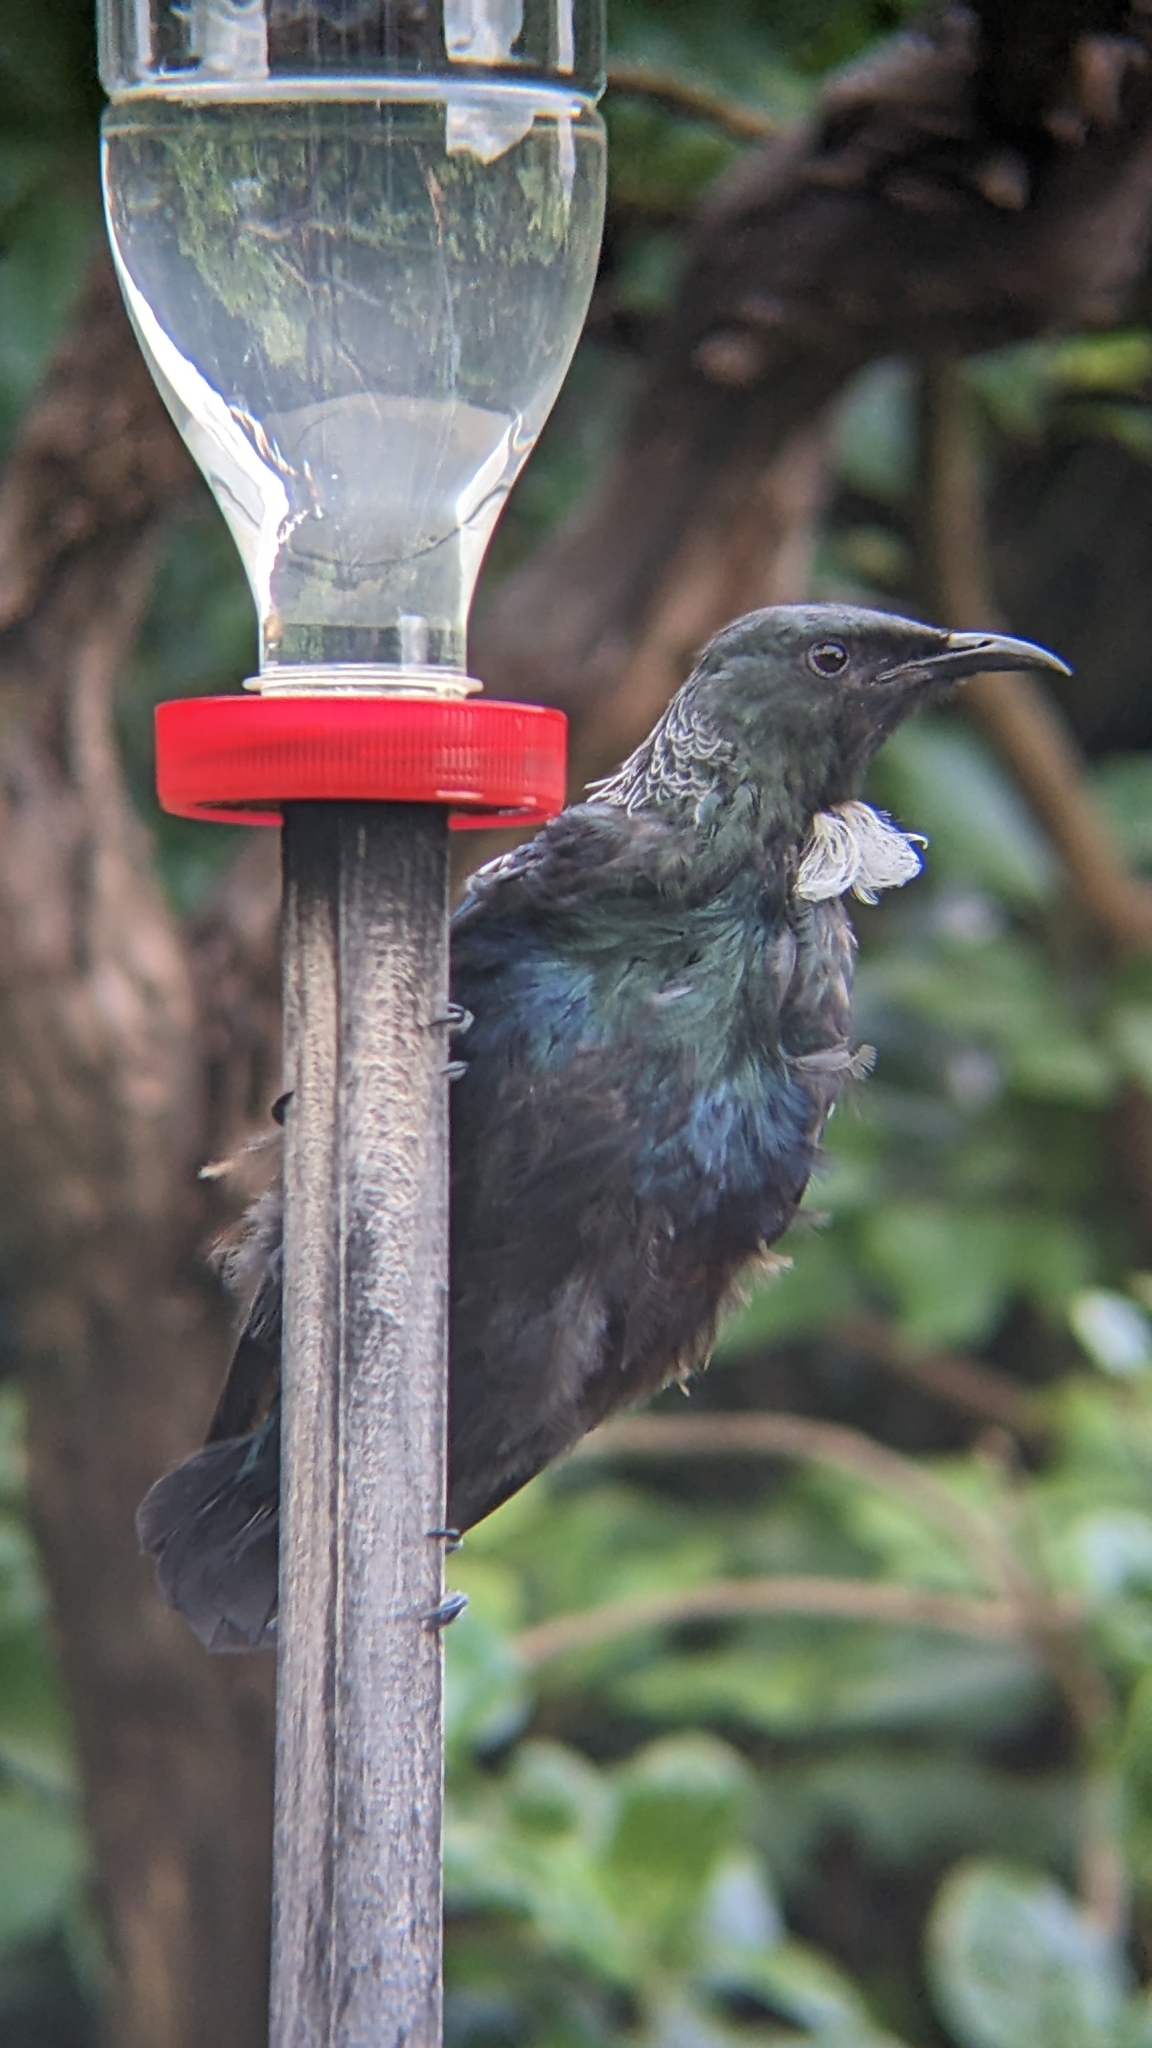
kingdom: Animalia
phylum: Chordata
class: Aves
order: Passeriformes
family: Meliphagidae
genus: Prosthemadera
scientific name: Prosthemadera novaeseelandiae
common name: Tui
